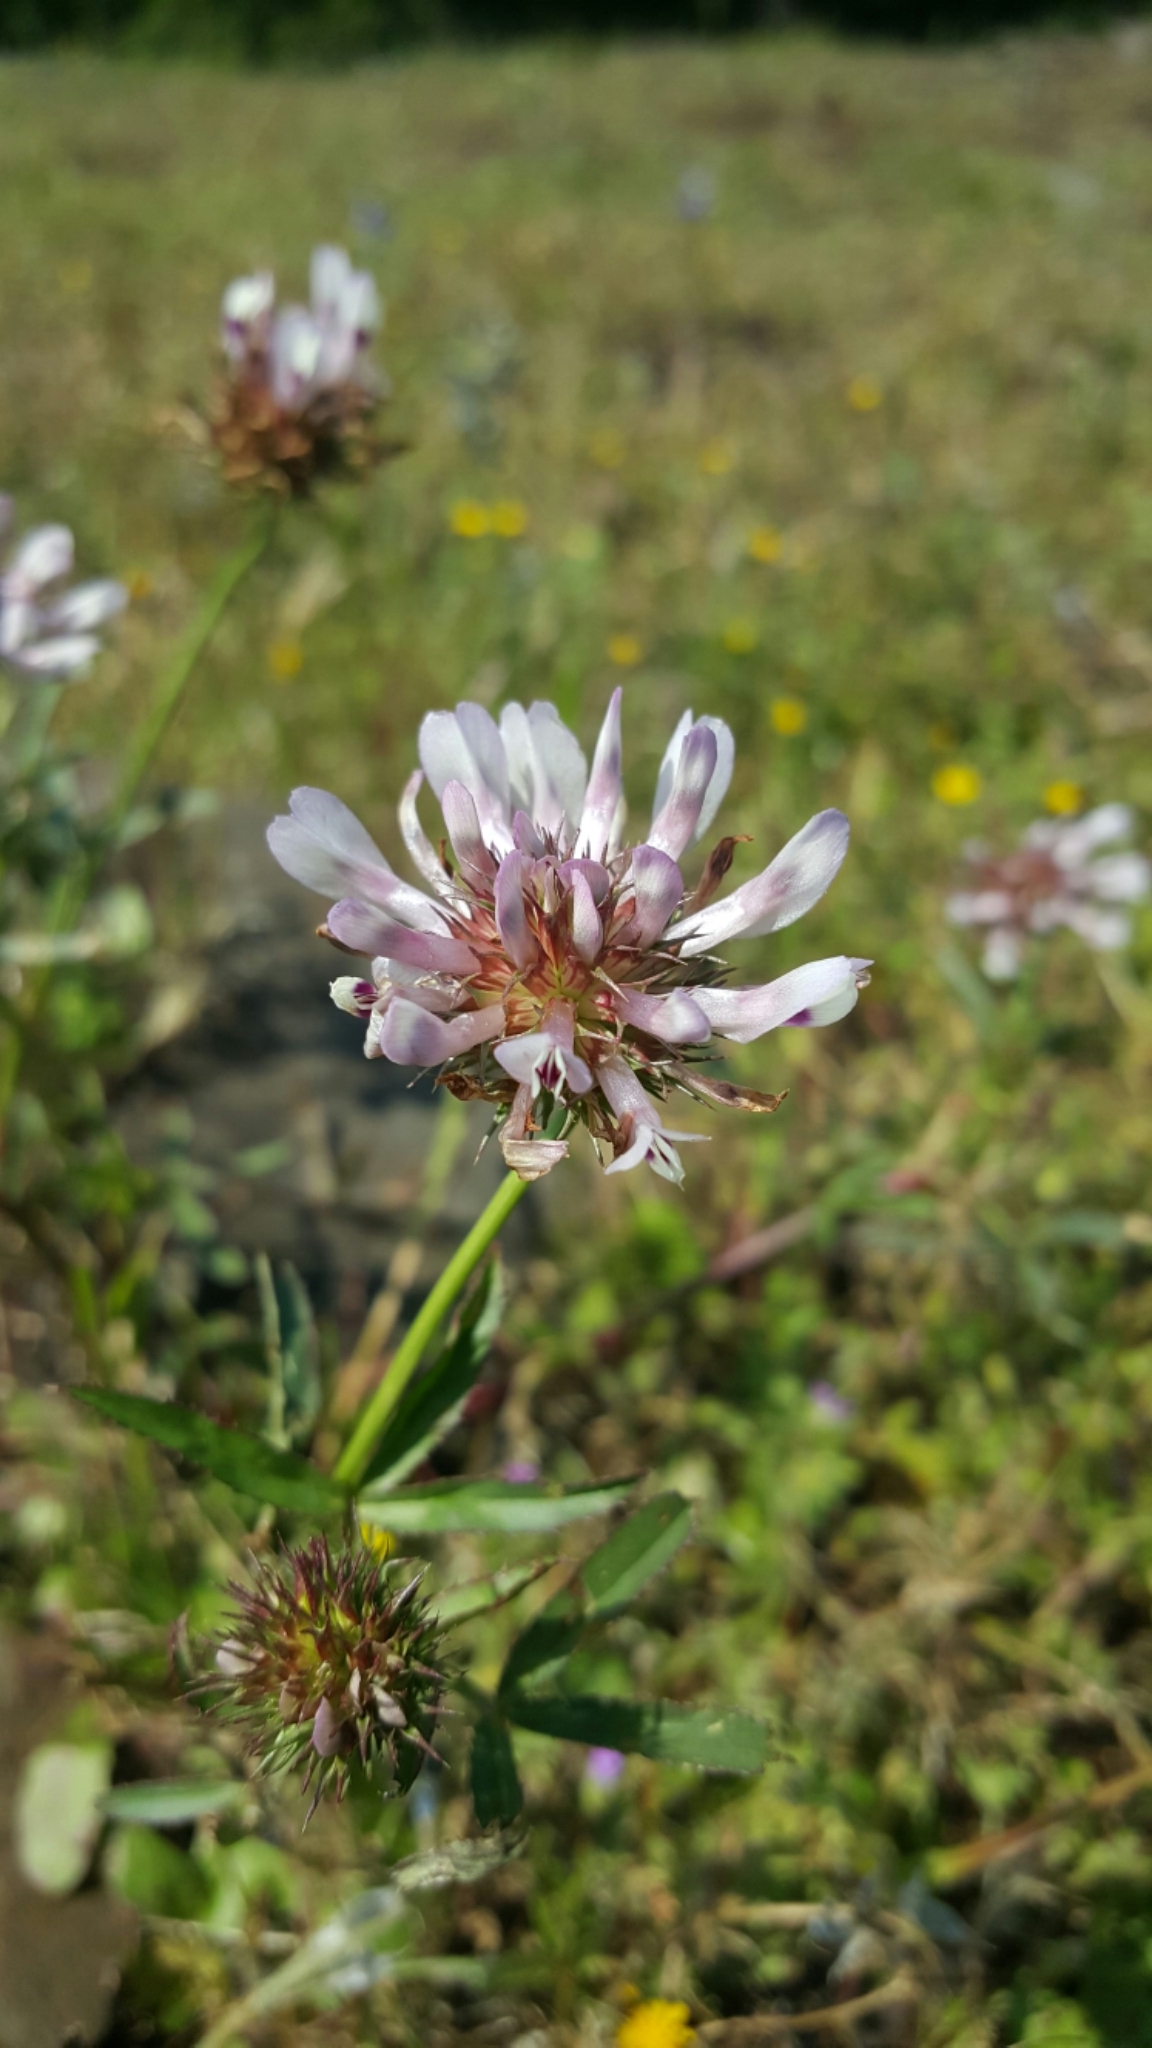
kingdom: Plantae
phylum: Tracheophyta
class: Magnoliopsida
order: Fabales
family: Fabaceae
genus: Trifolium
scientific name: Trifolium willdenovii
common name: Tomcat clover
